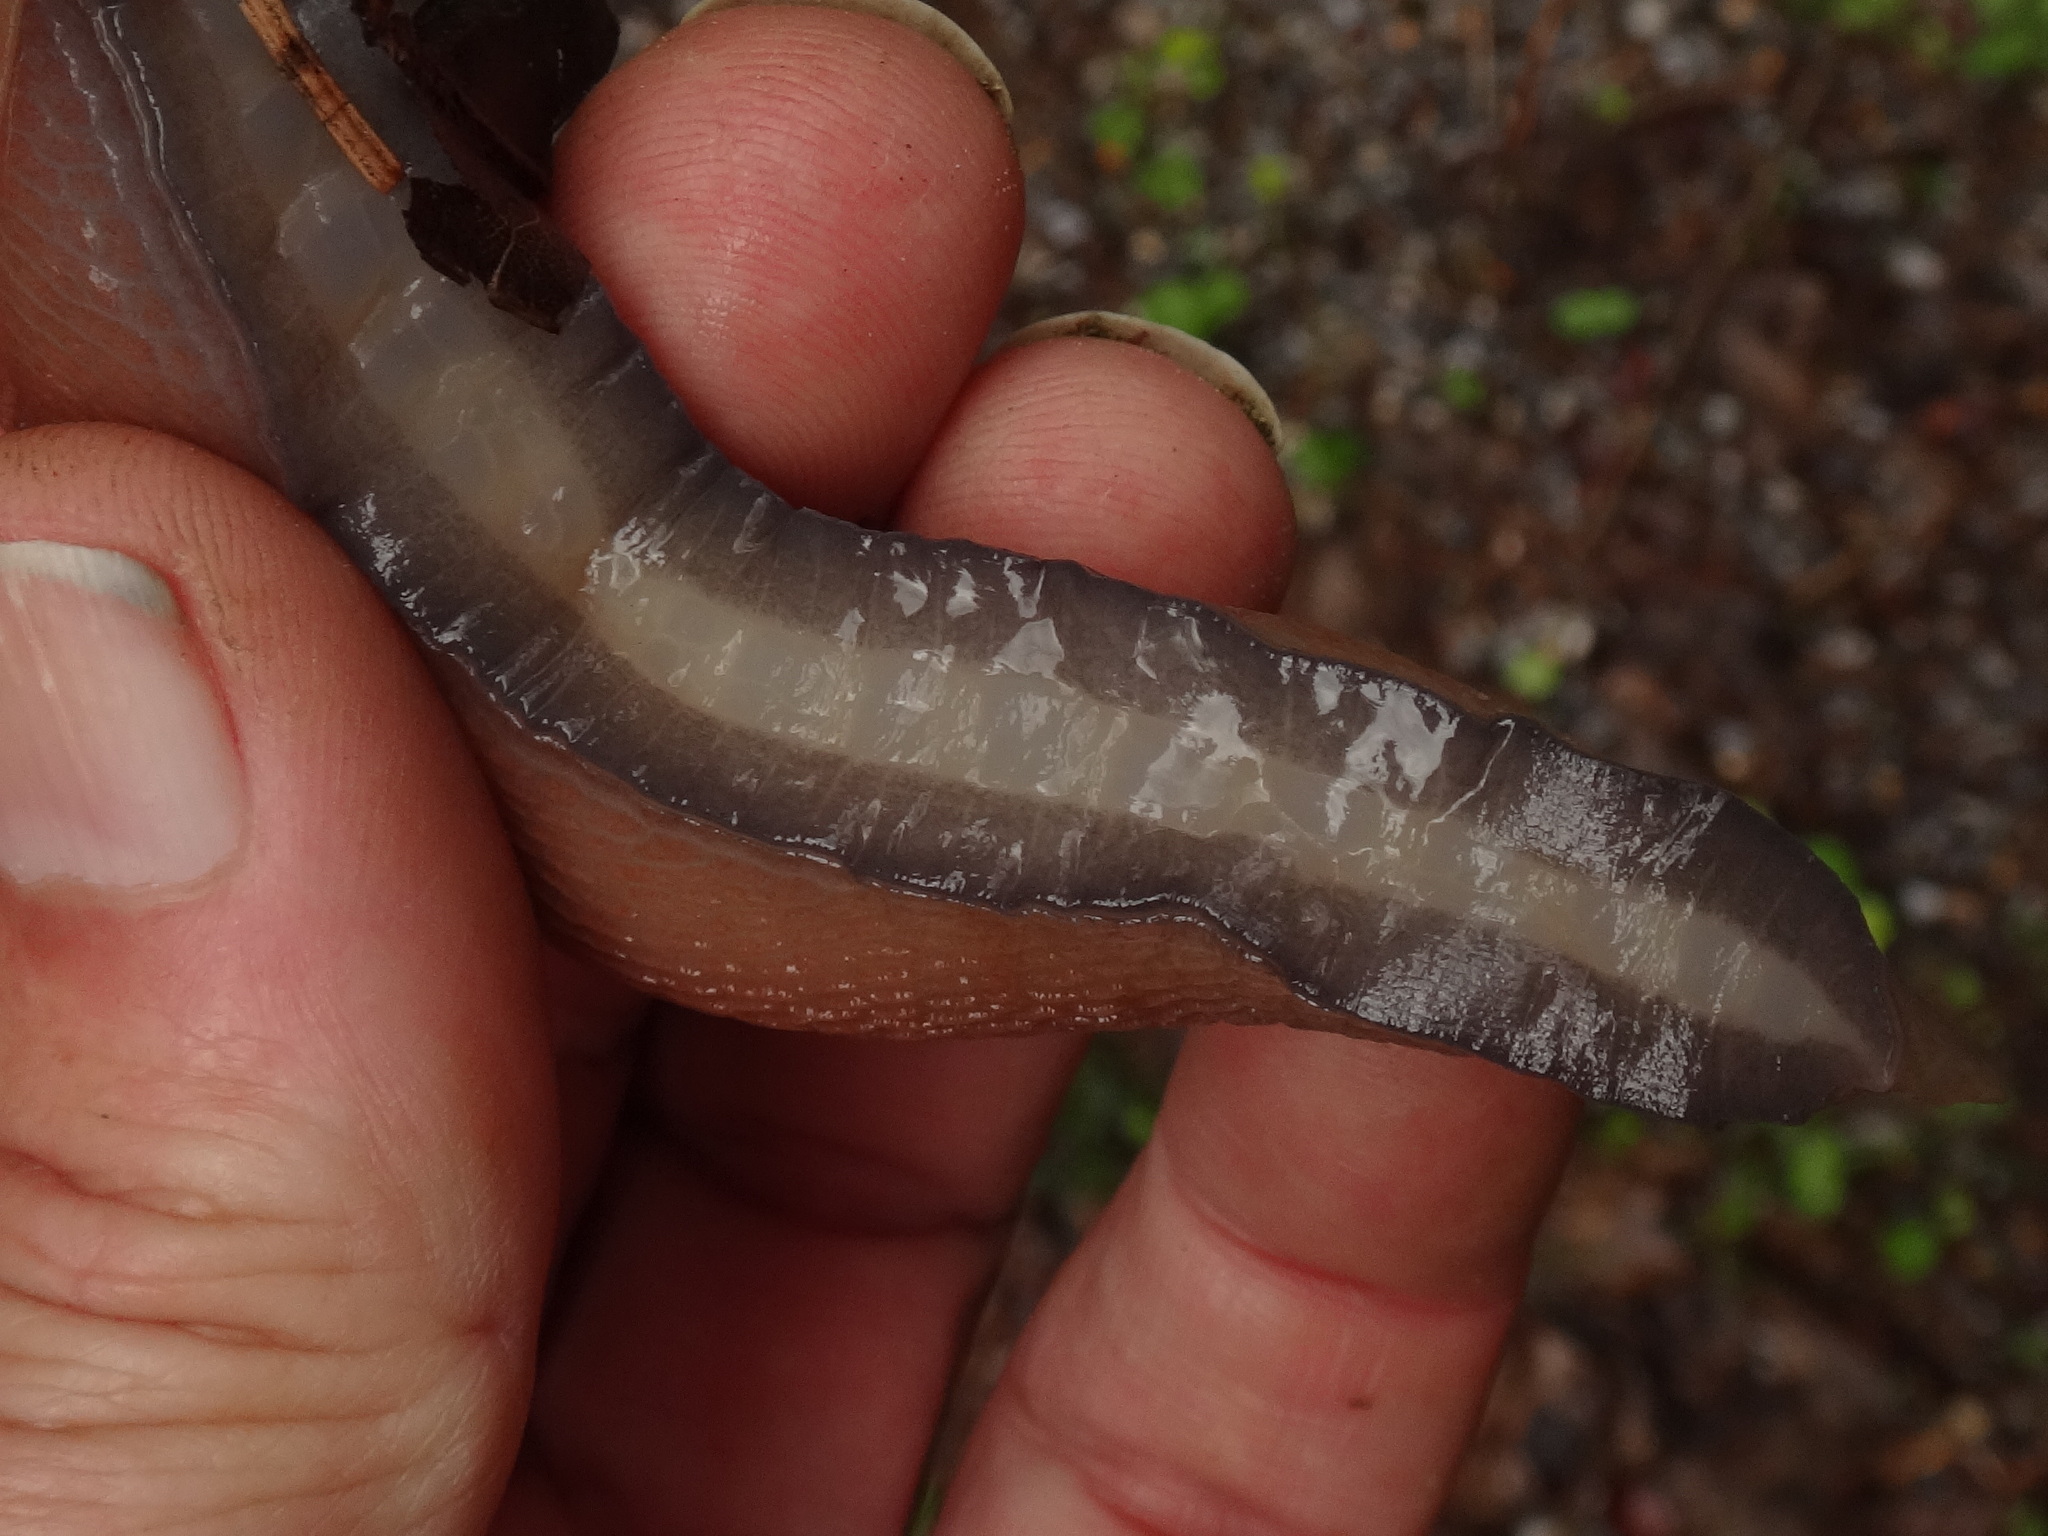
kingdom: Animalia
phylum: Mollusca
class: Gastropoda
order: Stylommatophora
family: Limacidae
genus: Limax
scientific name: Limax cinereoniger
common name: Ash-black slug
